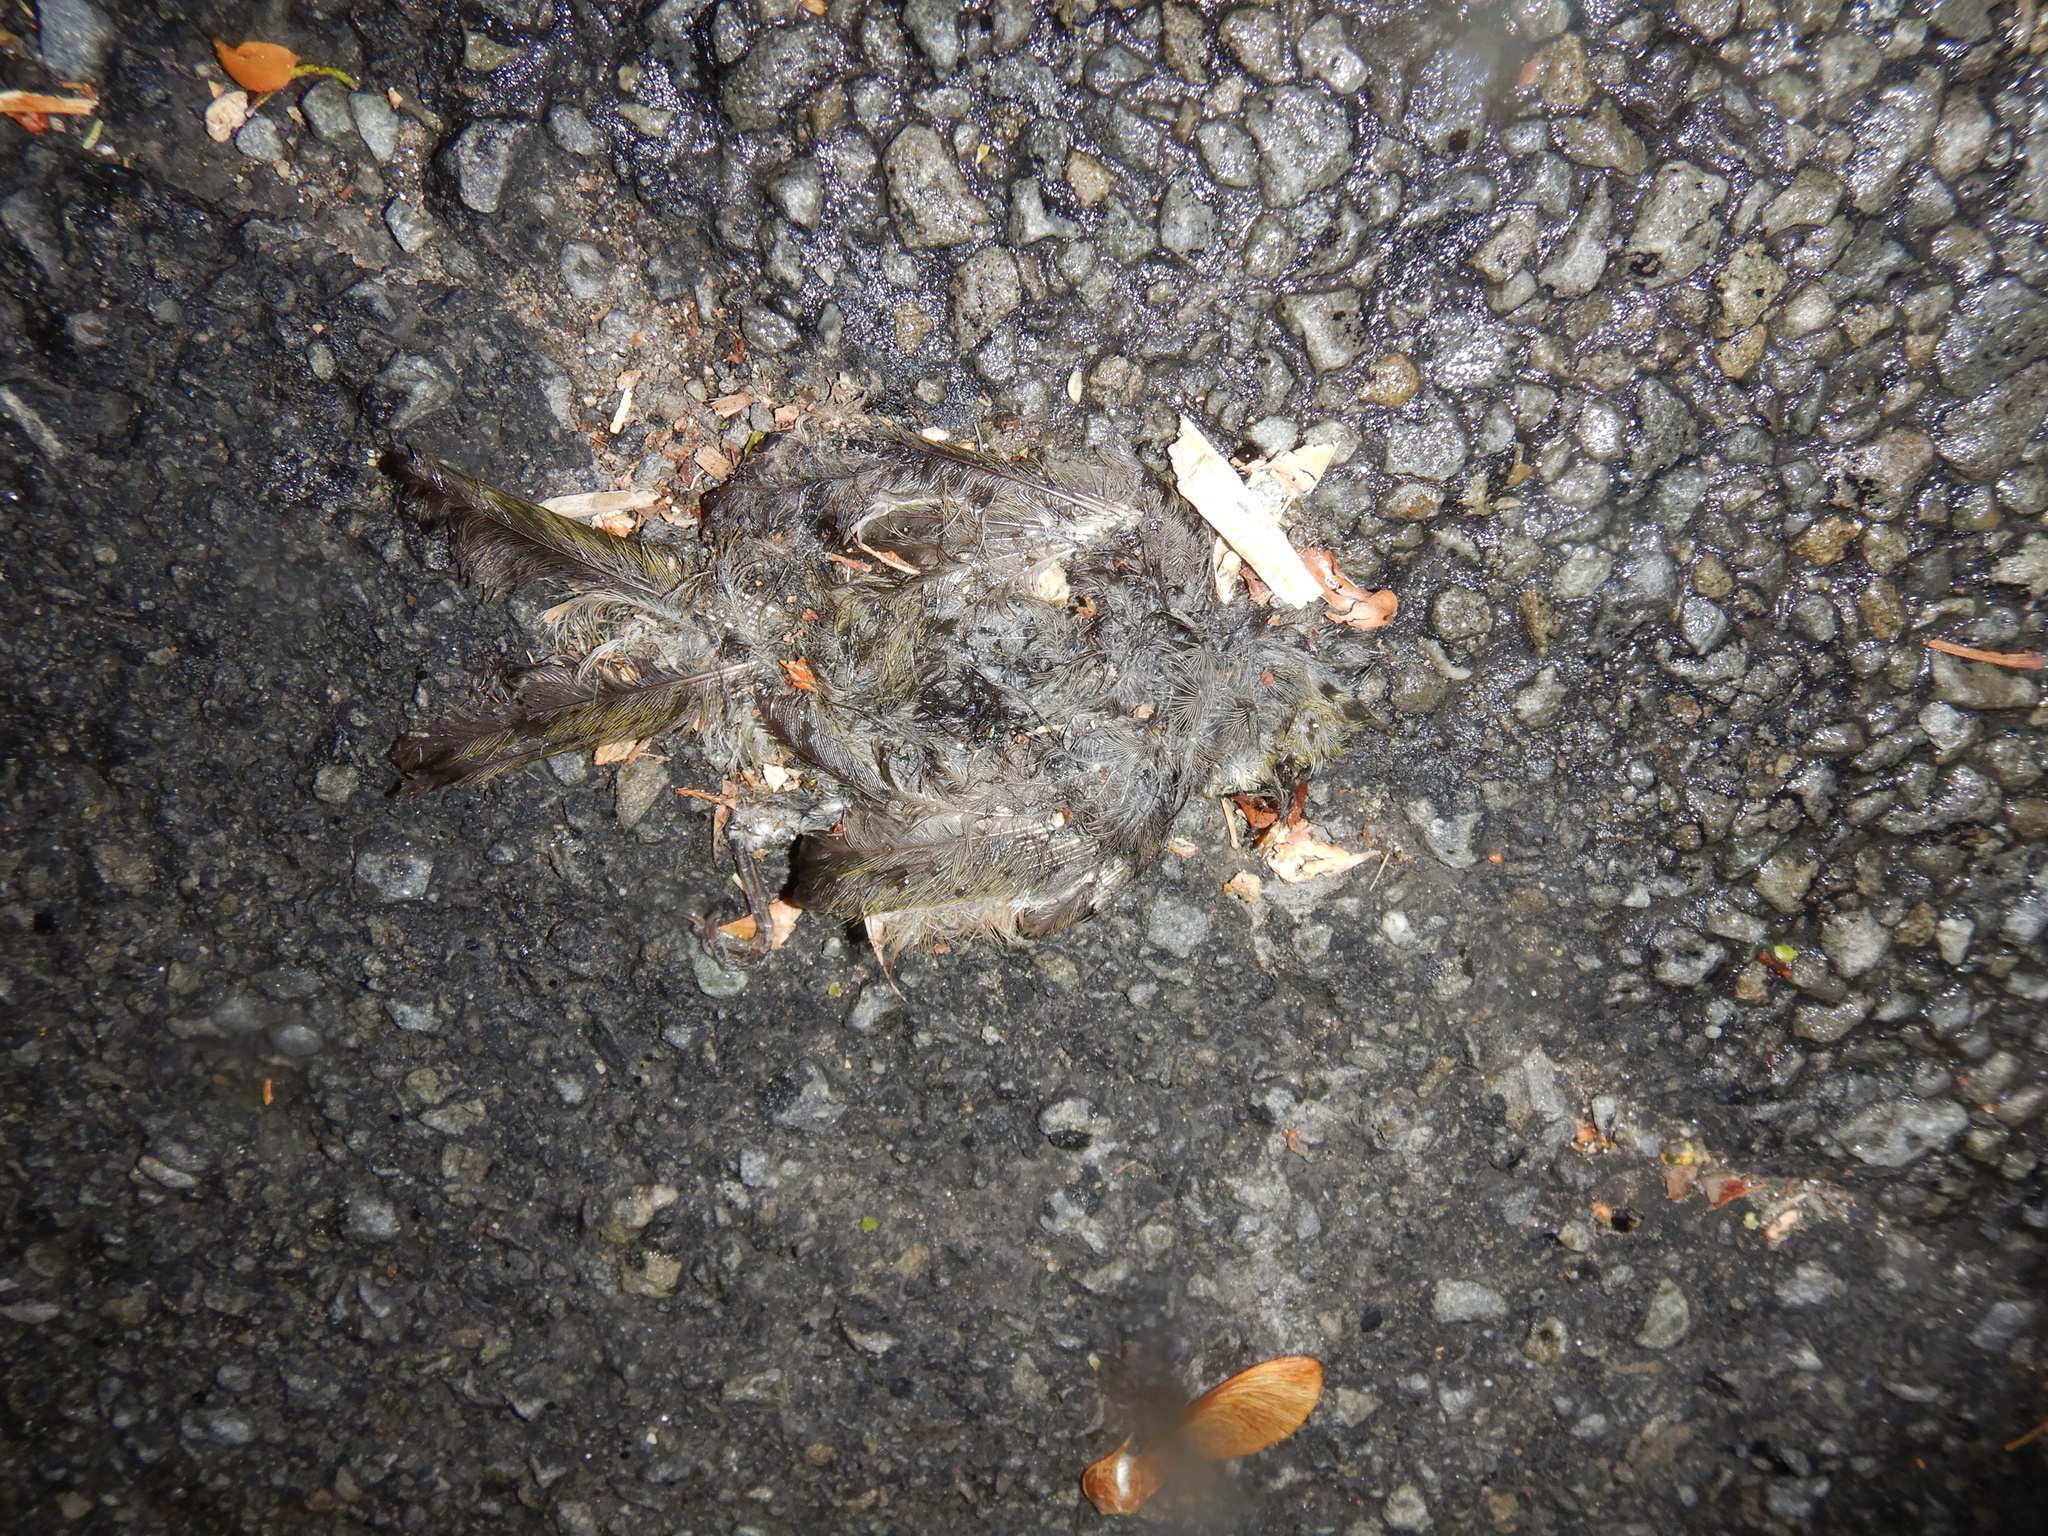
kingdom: Animalia
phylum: Chordata
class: Aves
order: Passeriformes
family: Zosteropidae
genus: Zosterops
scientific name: Zosterops lateralis
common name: Silvereye
